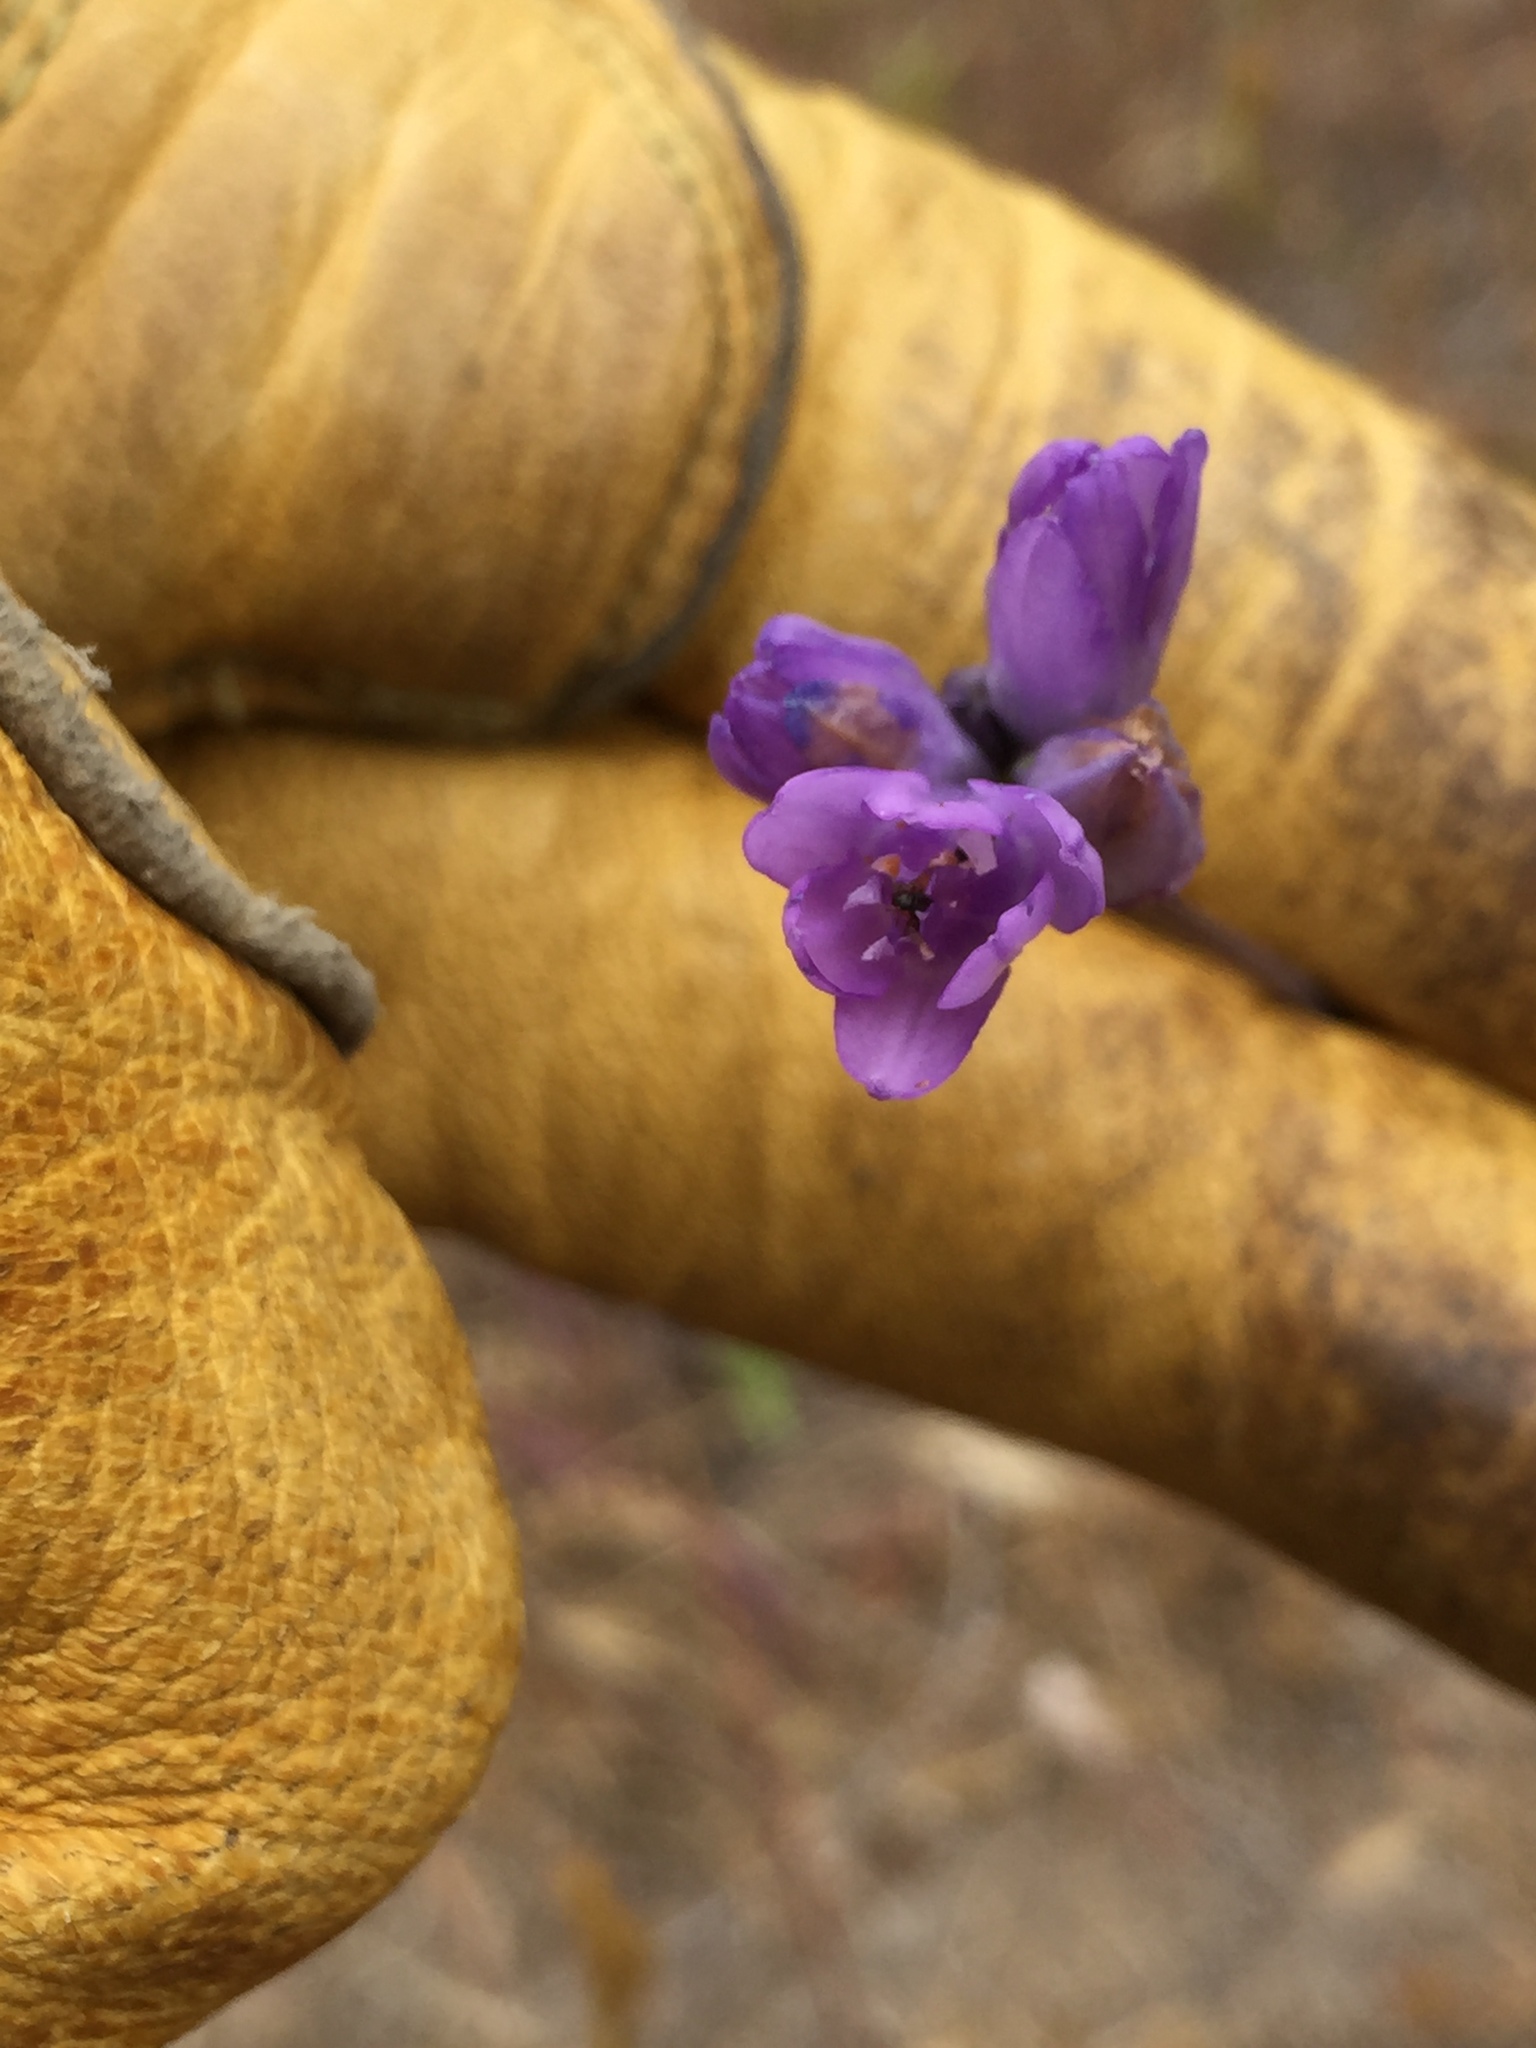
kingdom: Plantae
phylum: Tracheophyta
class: Liliopsida
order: Asparagales
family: Asparagaceae
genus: Dipterostemon
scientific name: Dipterostemon capitatus
